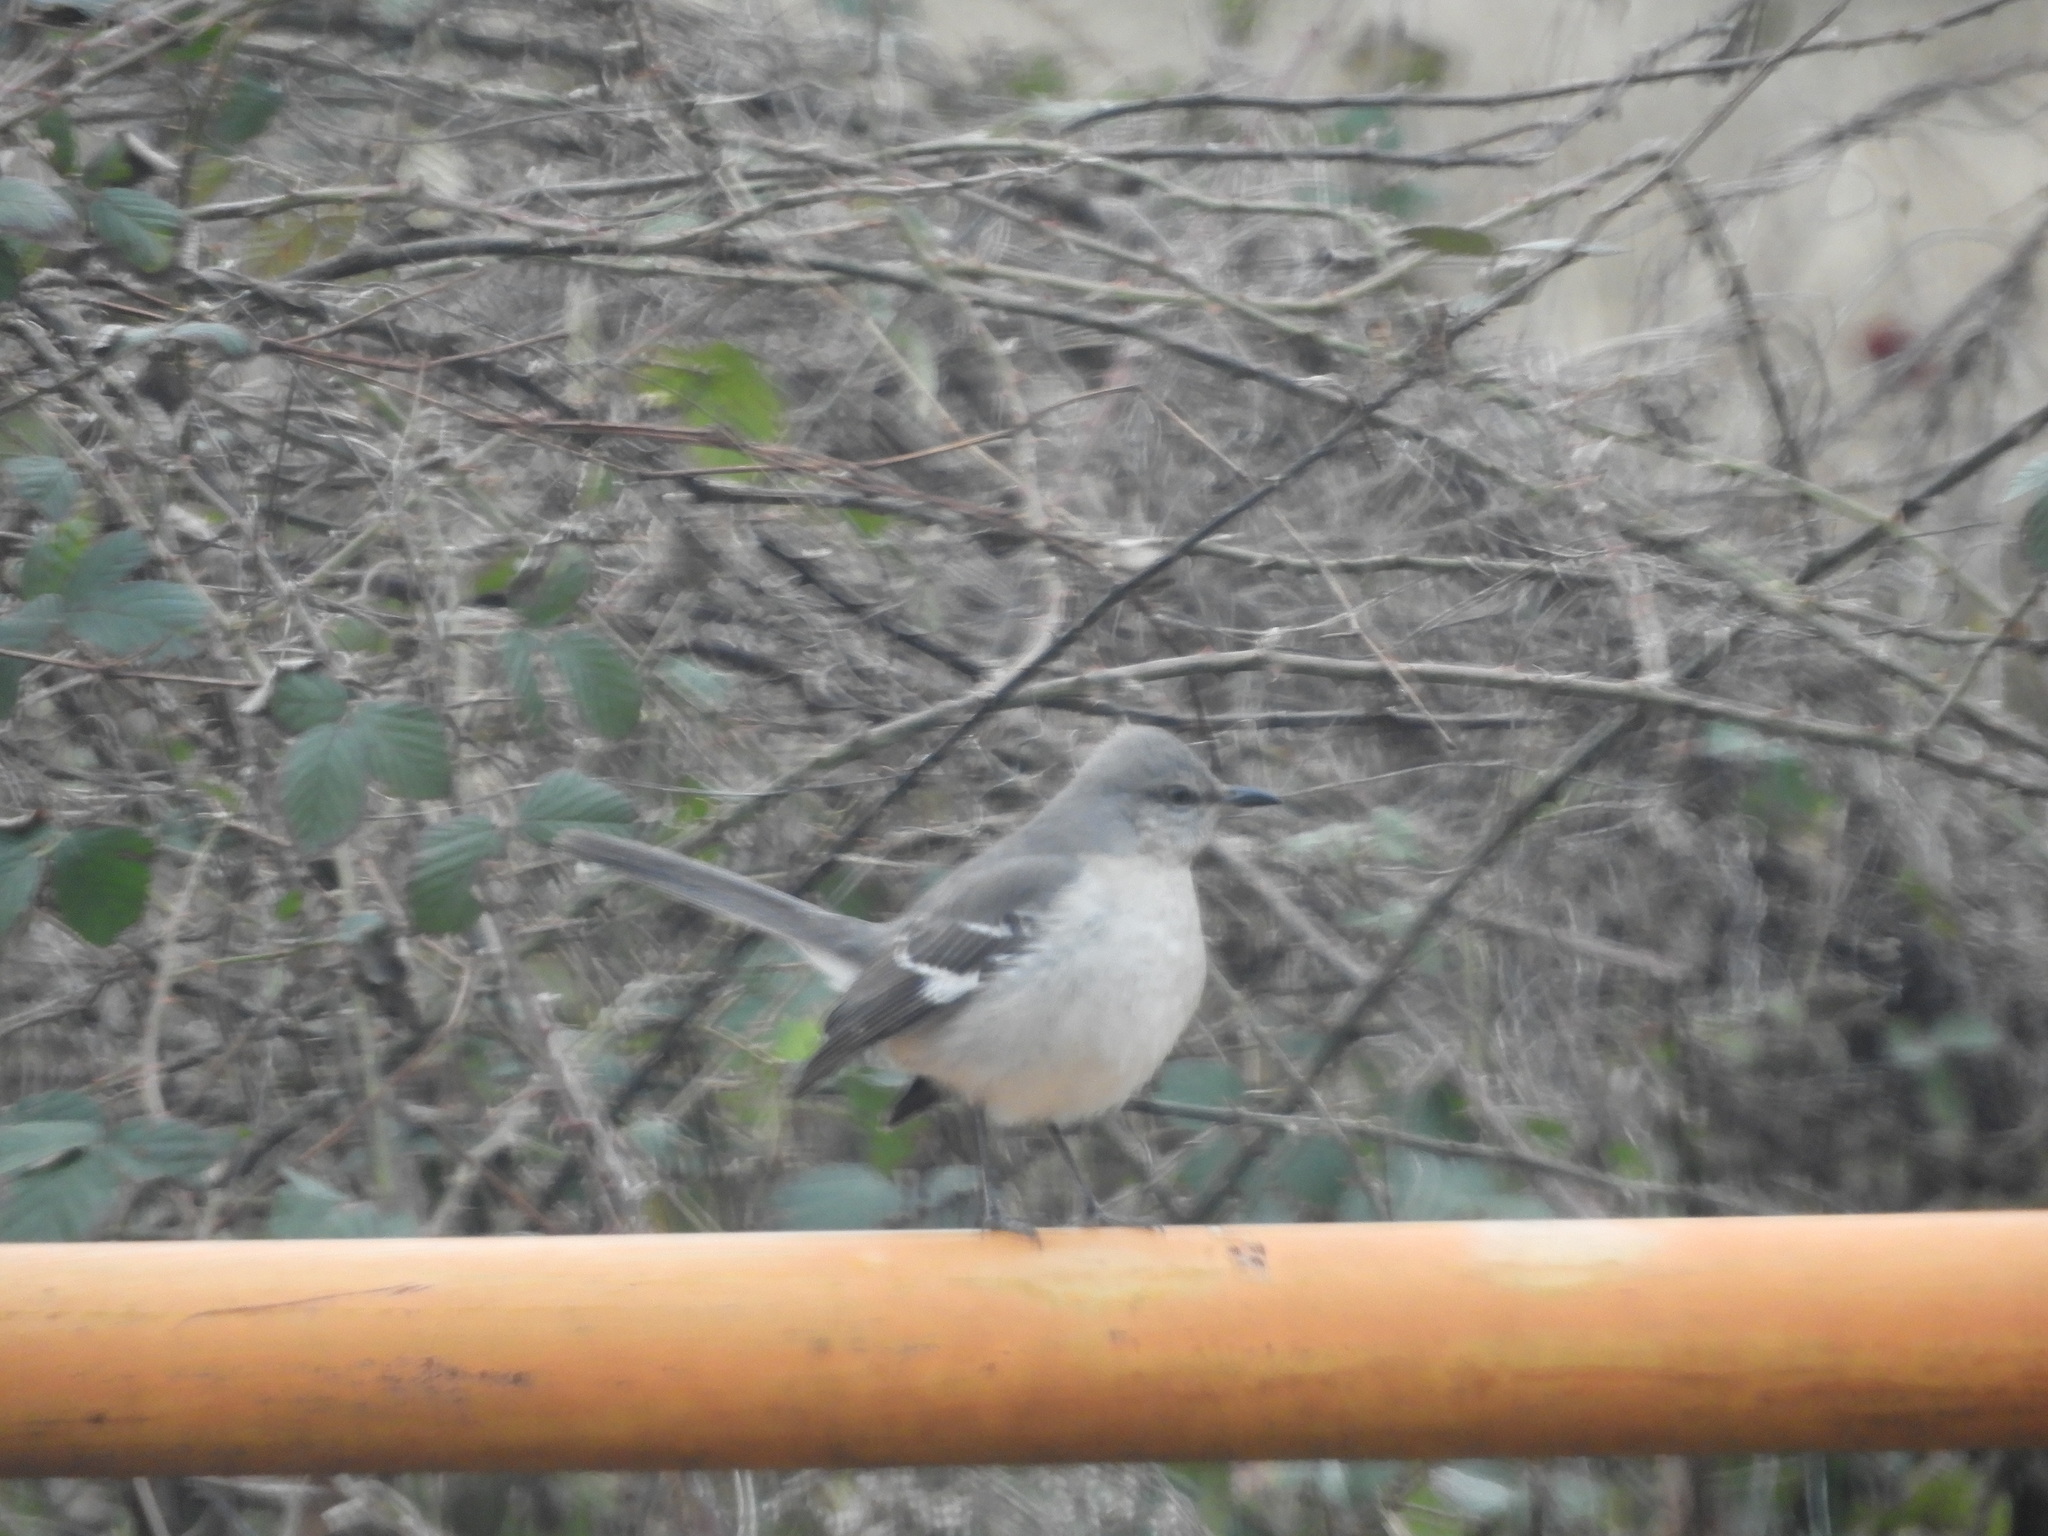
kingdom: Animalia
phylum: Chordata
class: Aves
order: Passeriformes
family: Mimidae
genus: Mimus
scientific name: Mimus polyglottos
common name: Northern mockingbird
